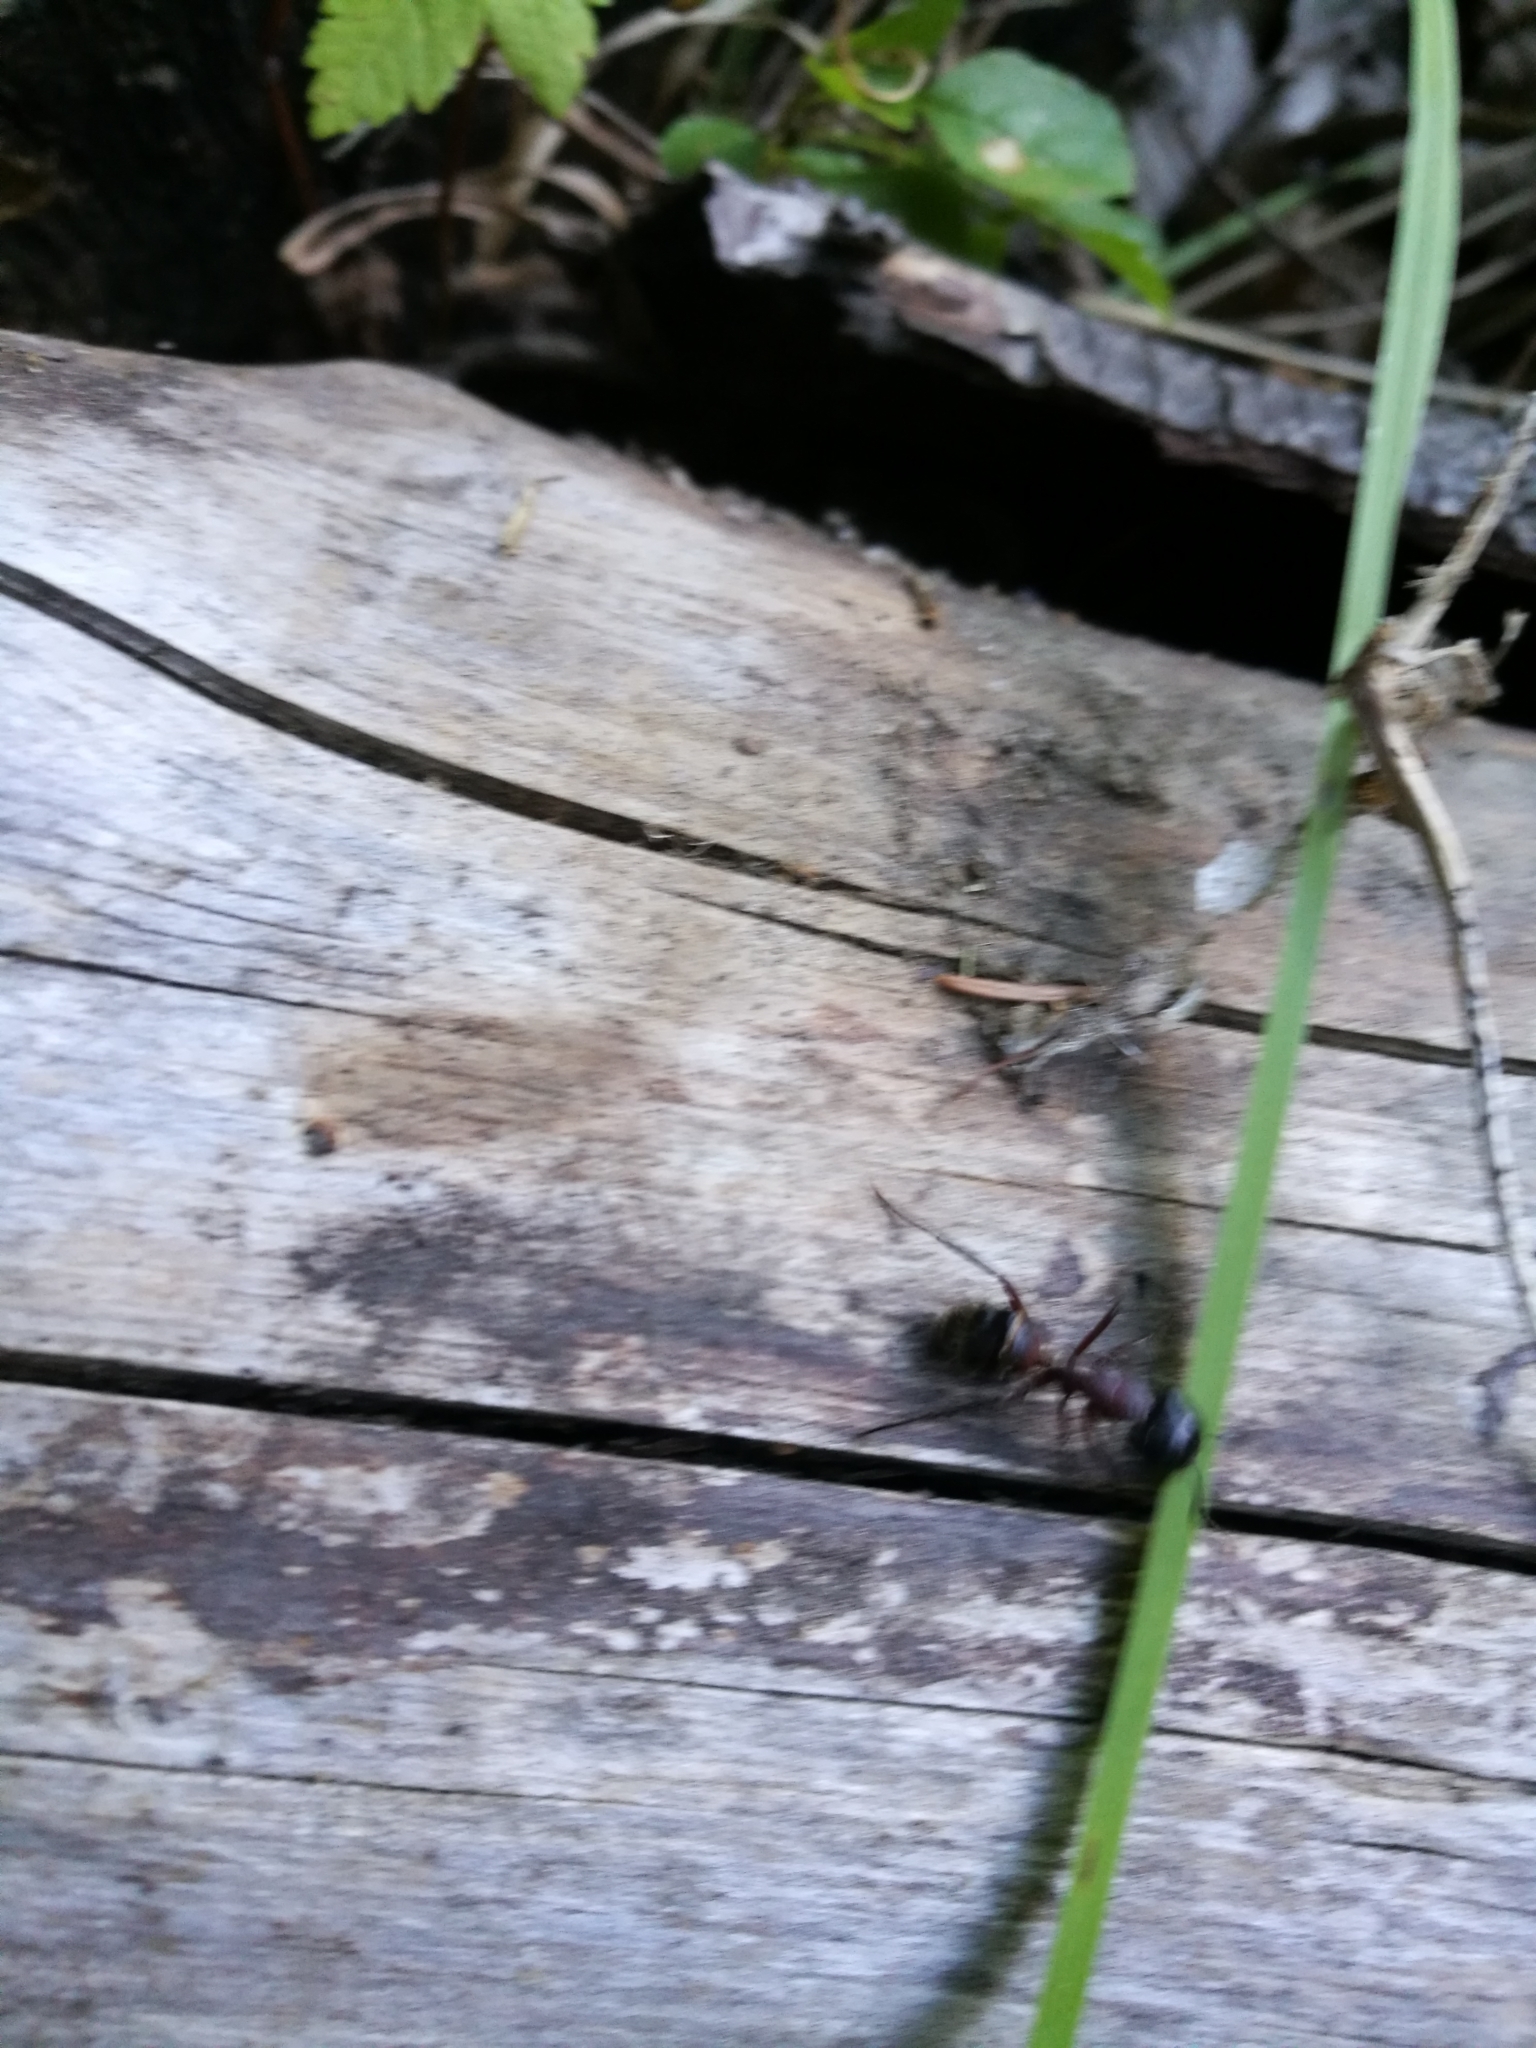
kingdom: Animalia
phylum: Arthropoda
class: Insecta
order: Hymenoptera
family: Formicidae
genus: Camponotus
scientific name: Camponotus ligniperdus
